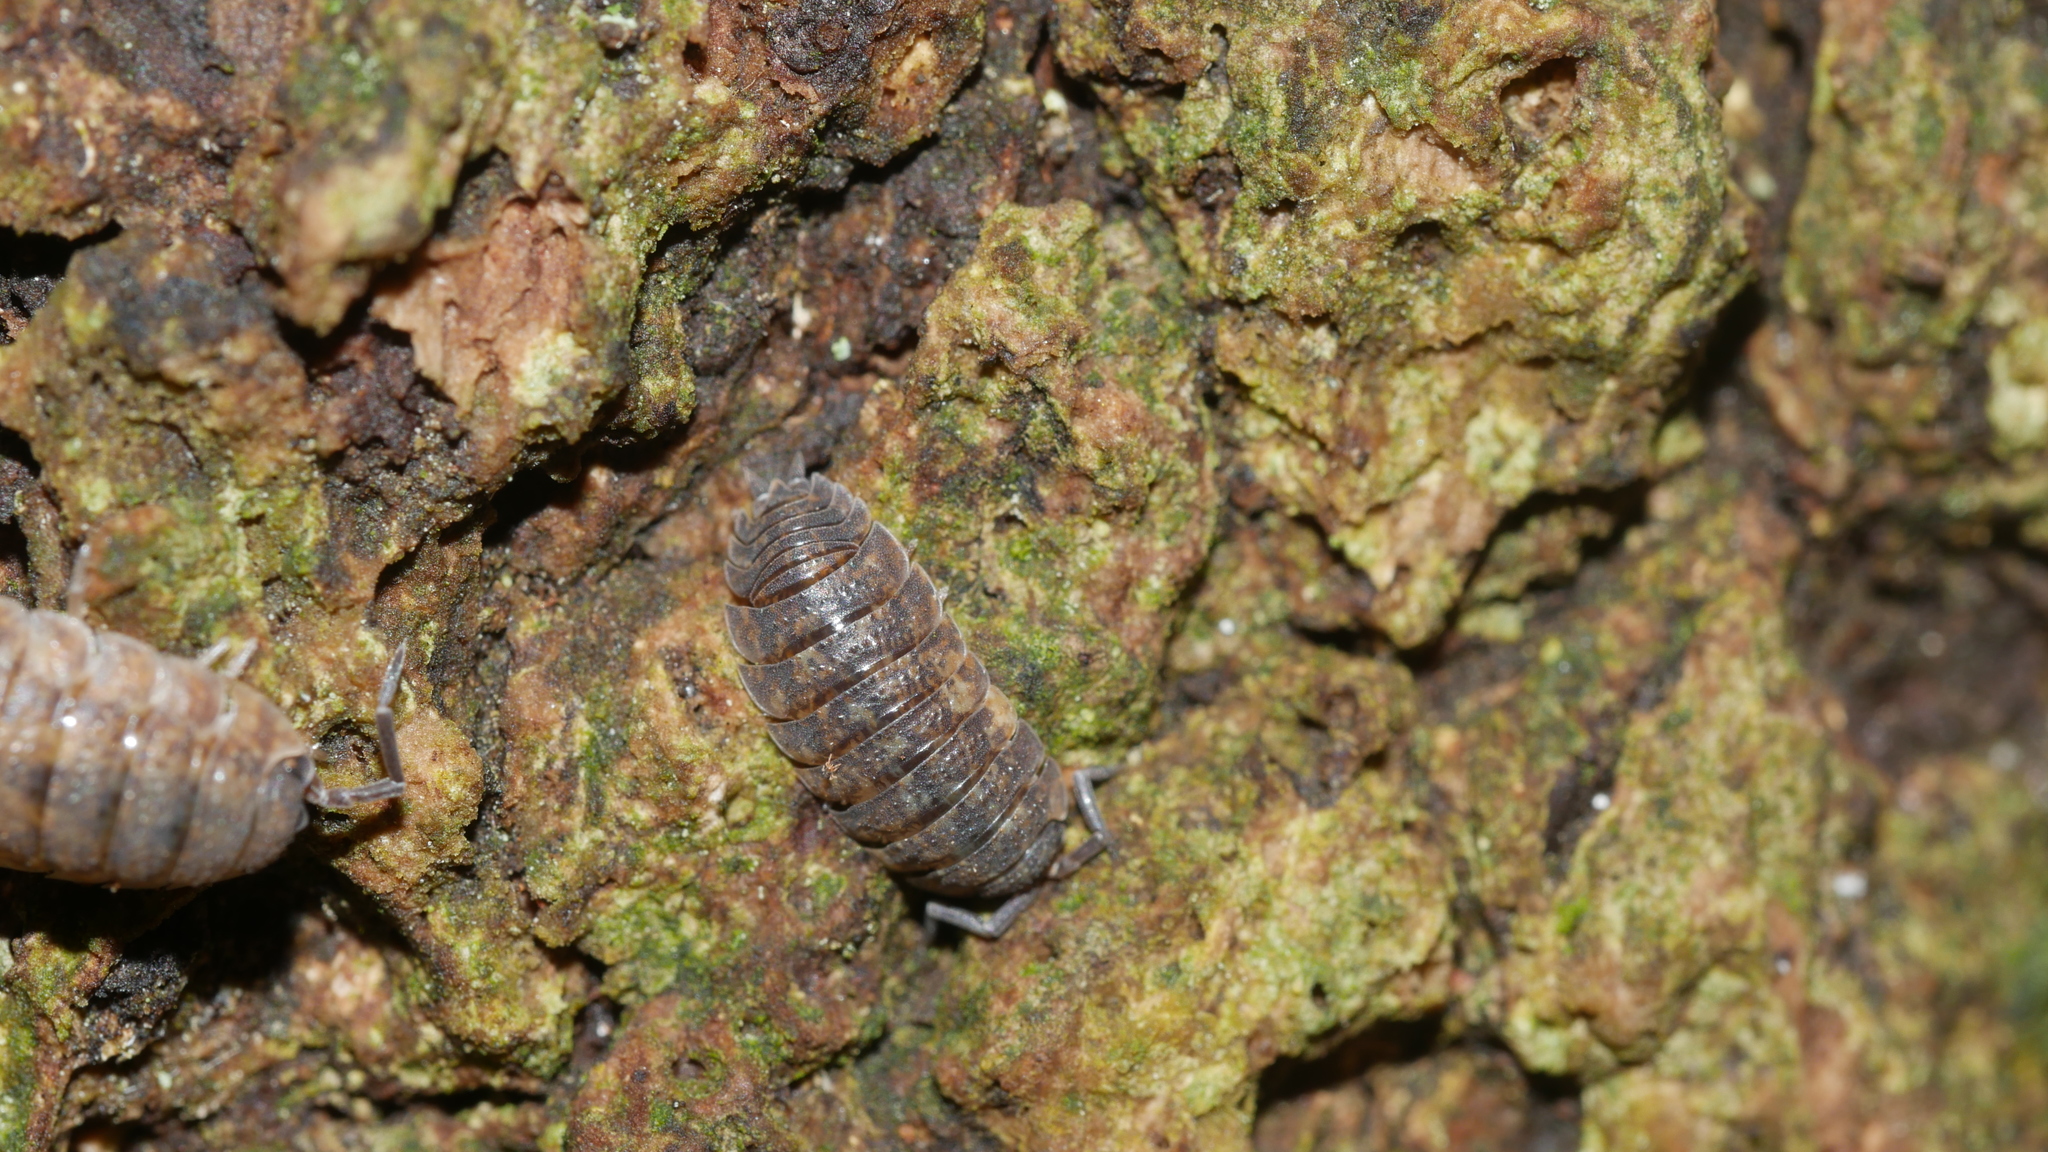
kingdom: Animalia
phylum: Arthropoda
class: Malacostraca
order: Isopoda
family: Porcellionidae
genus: Porcellio
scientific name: Porcellio scaber
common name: Common rough woodlouse
